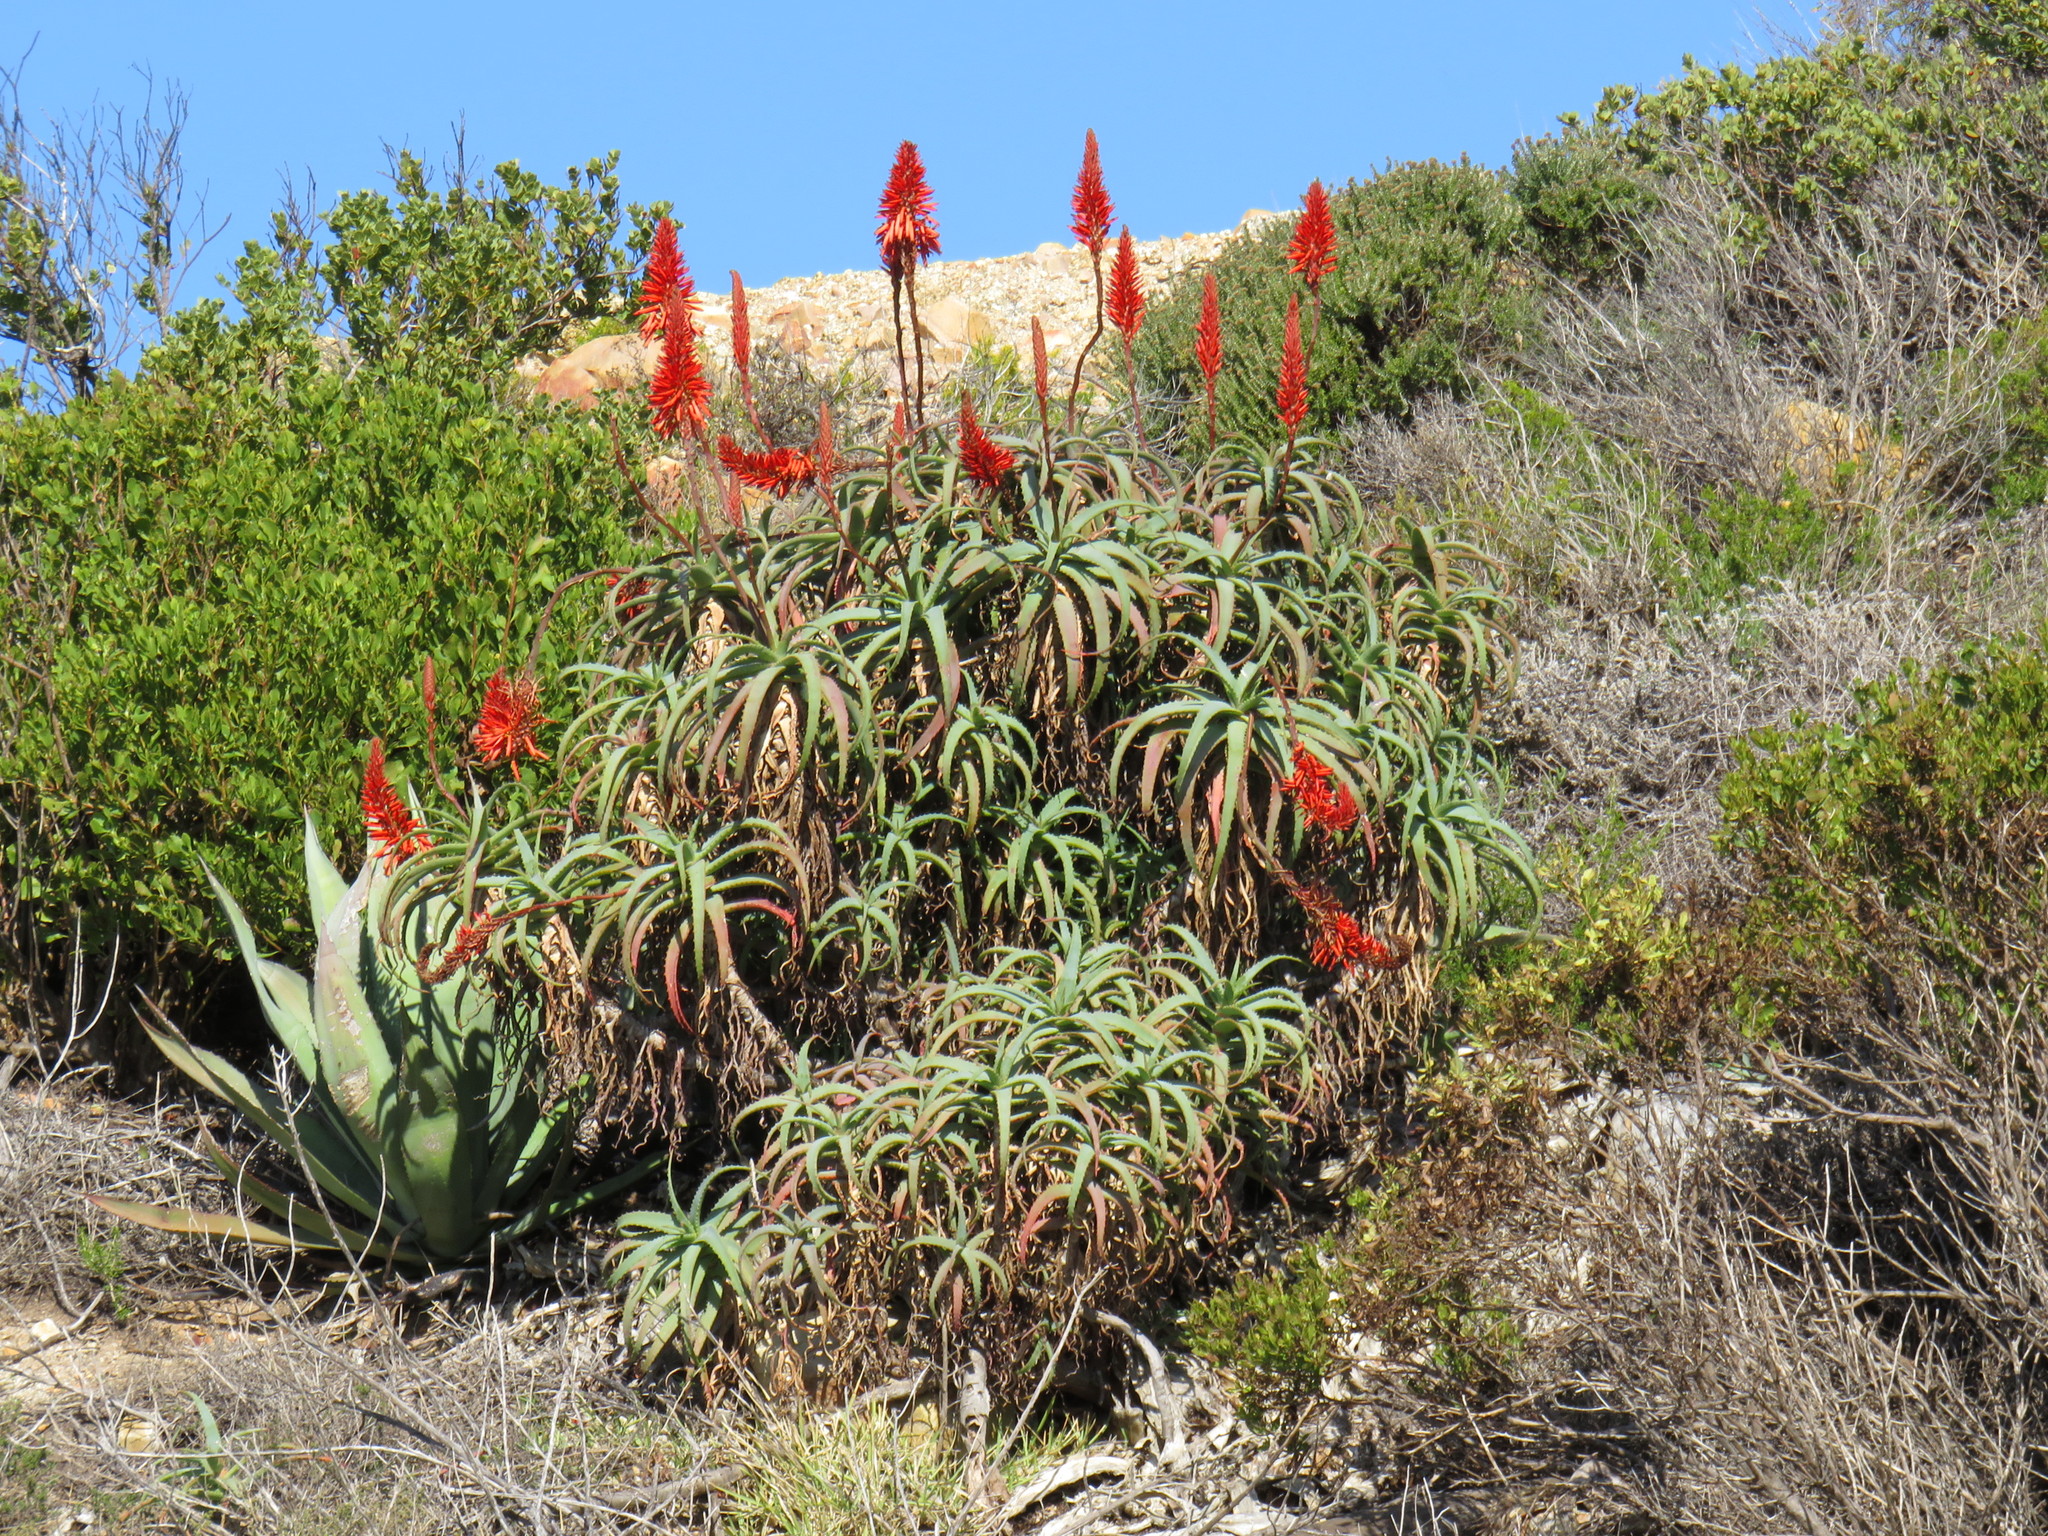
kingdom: Plantae
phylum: Tracheophyta
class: Liliopsida
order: Asparagales
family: Asphodelaceae
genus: Aloe
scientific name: Aloe arborescens
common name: Candelabra aloe
